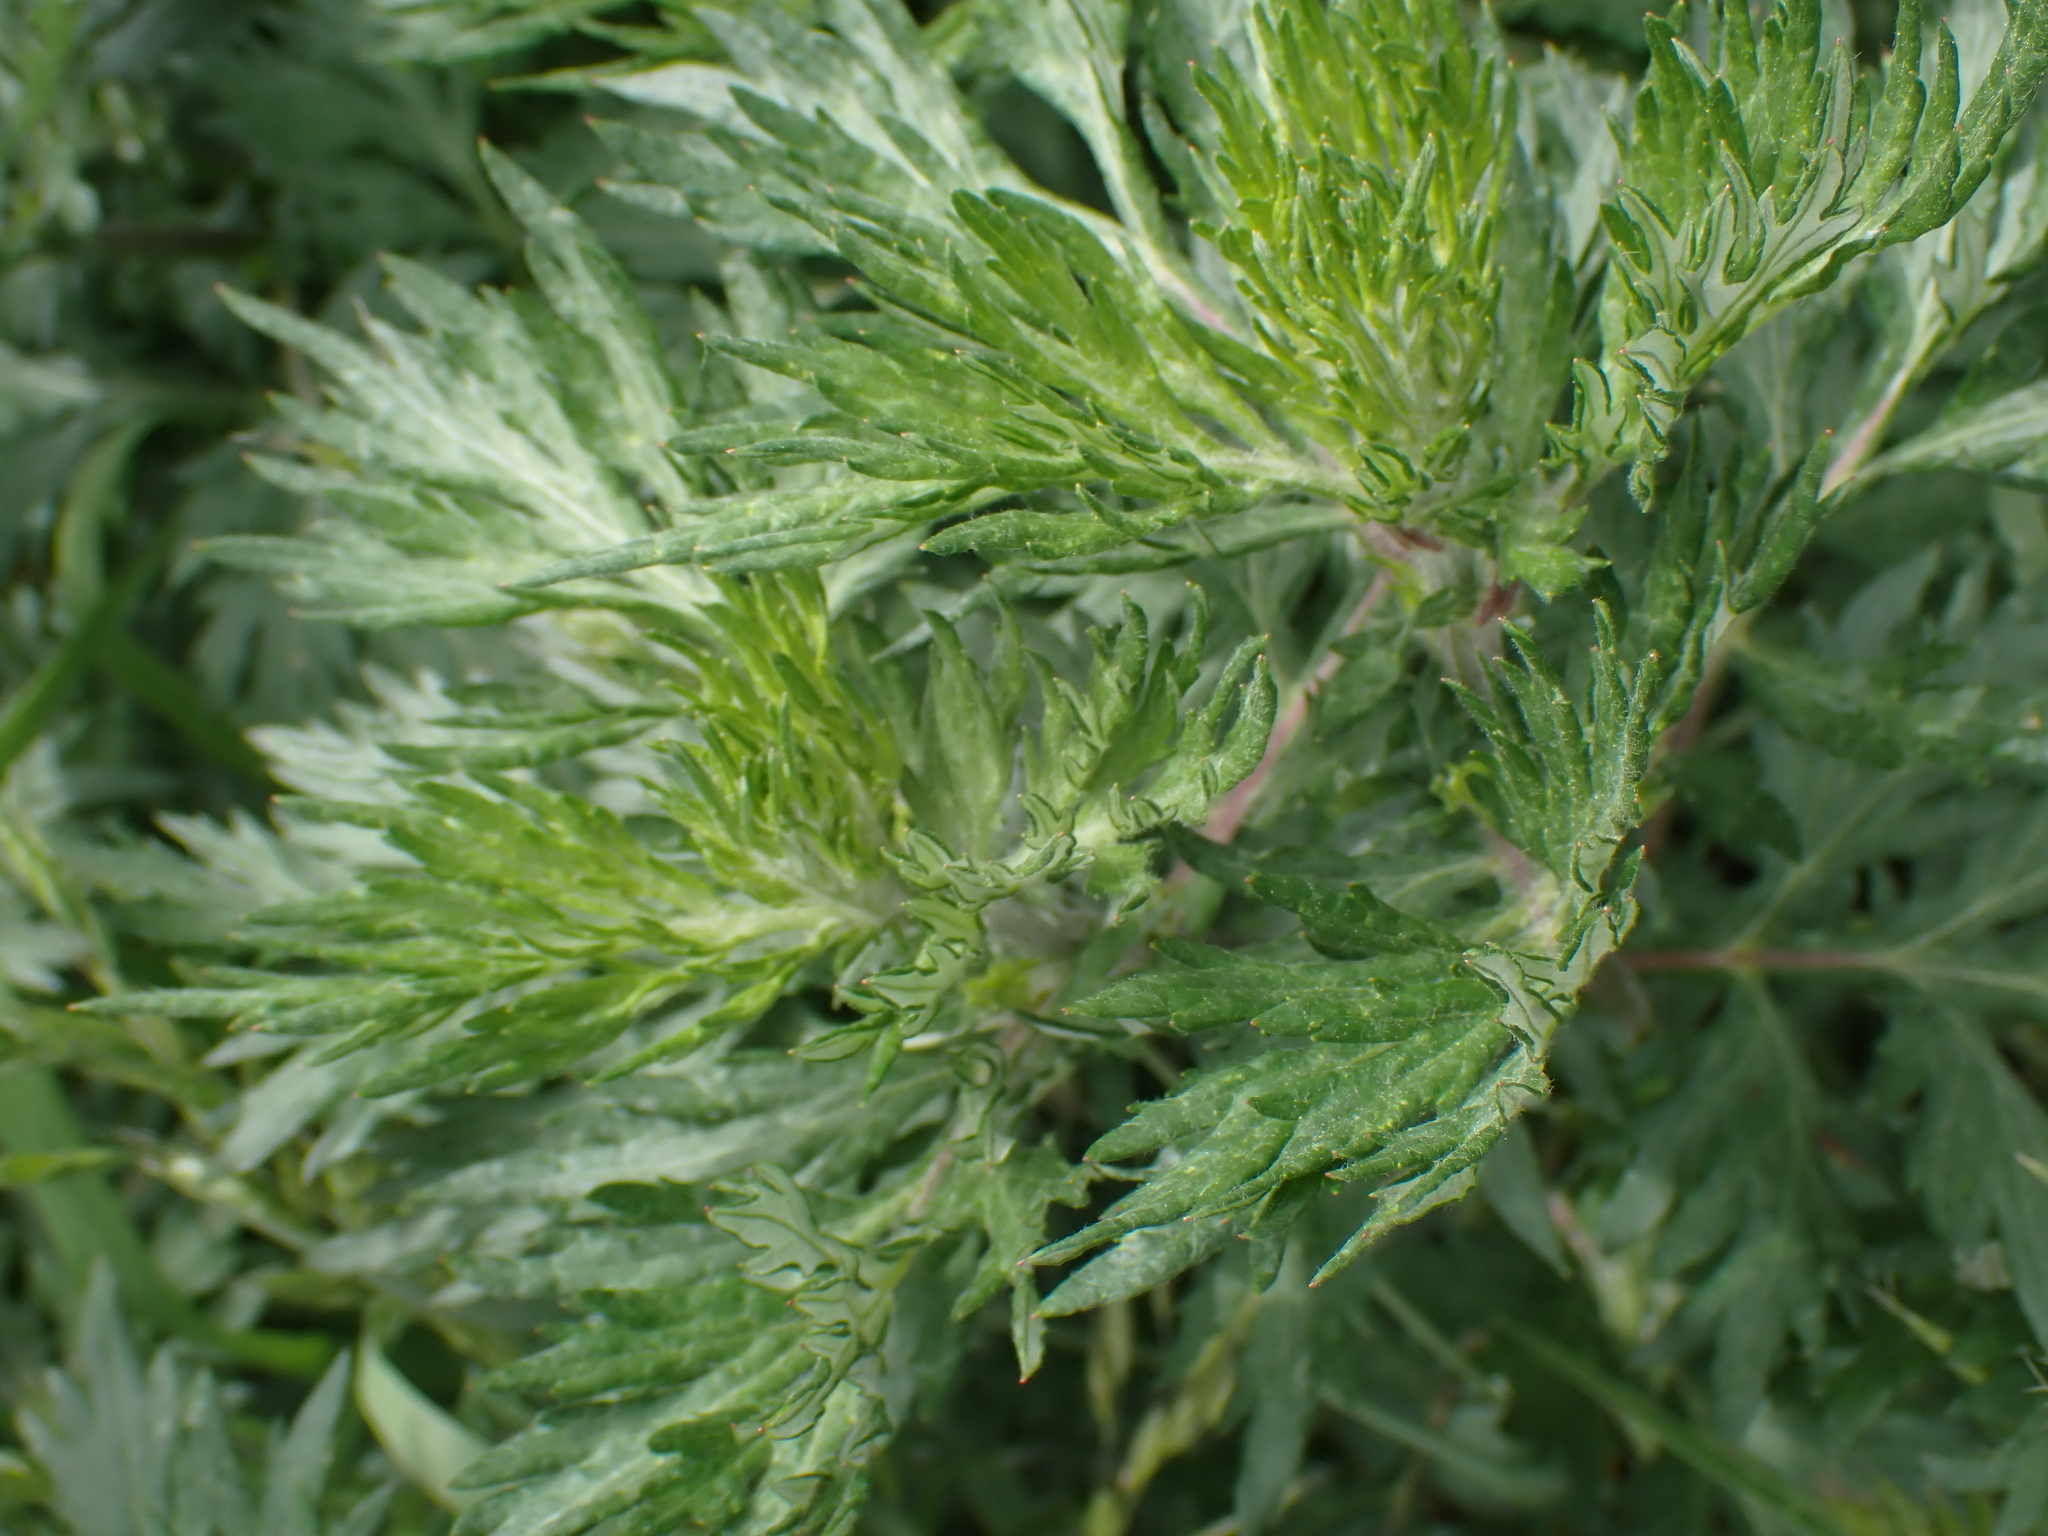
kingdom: Plantae
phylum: Tracheophyta
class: Magnoliopsida
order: Asterales
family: Asteraceae
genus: Artemisia
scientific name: Artemisia vulgaris
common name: Mugwort
